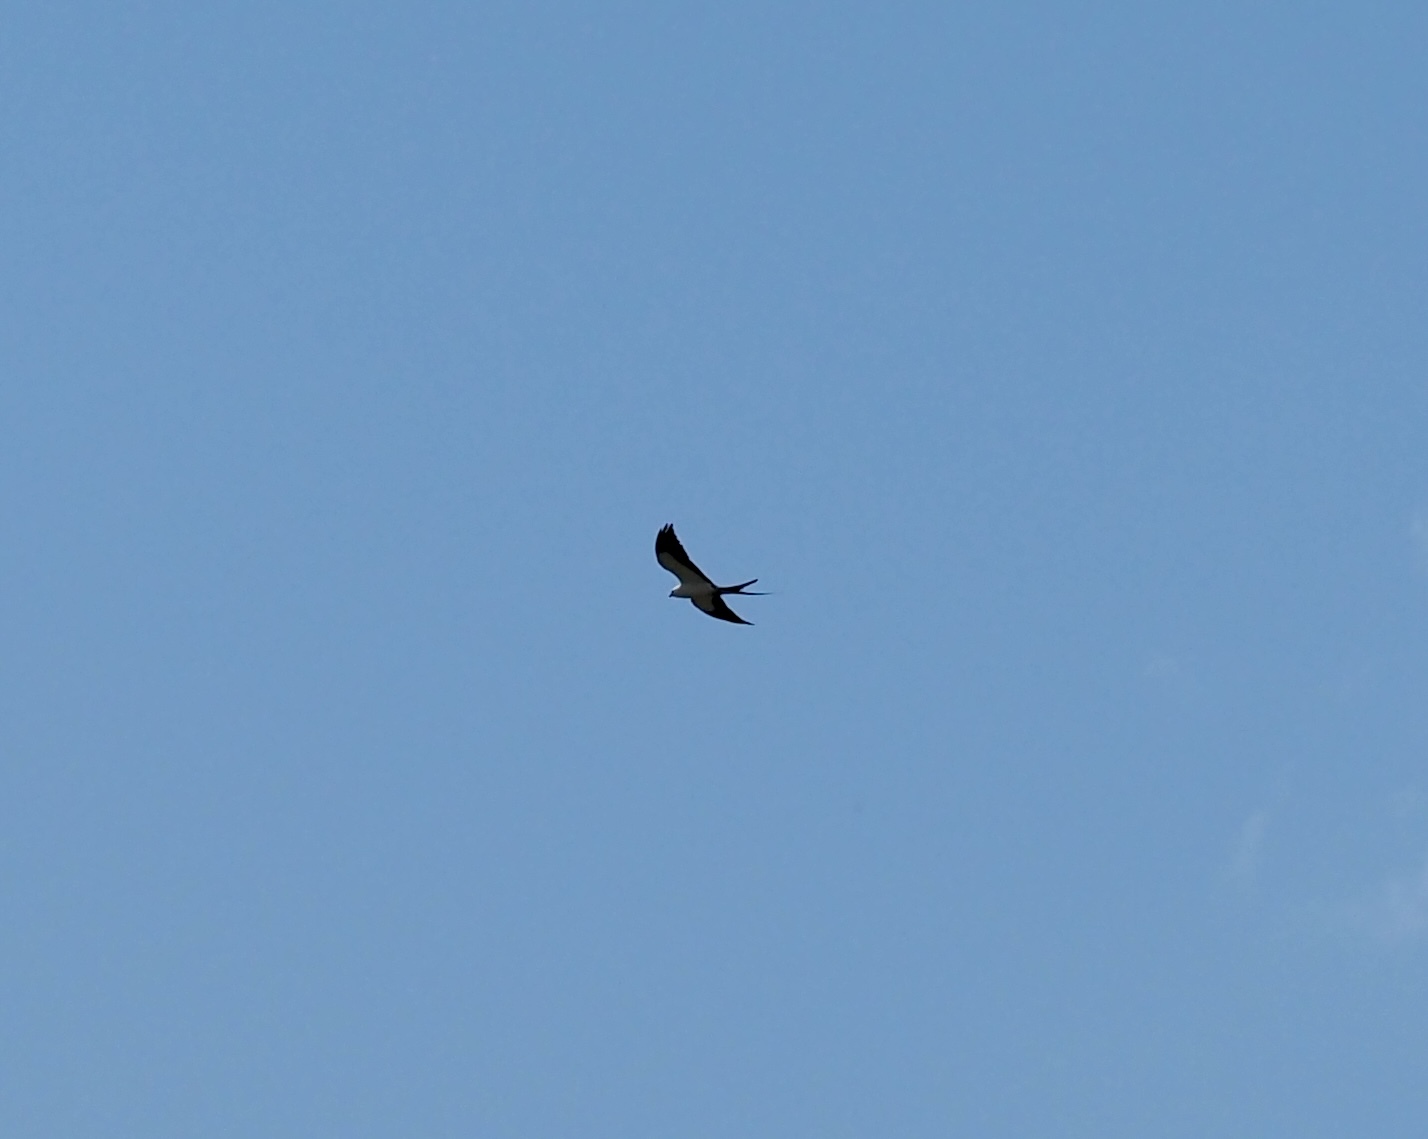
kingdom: Animalia
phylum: Chordata
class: Aves
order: Accipitriformes
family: Accipitridae
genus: Elanoides
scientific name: Elanoides forficatus
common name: Swallow-tailed kite
